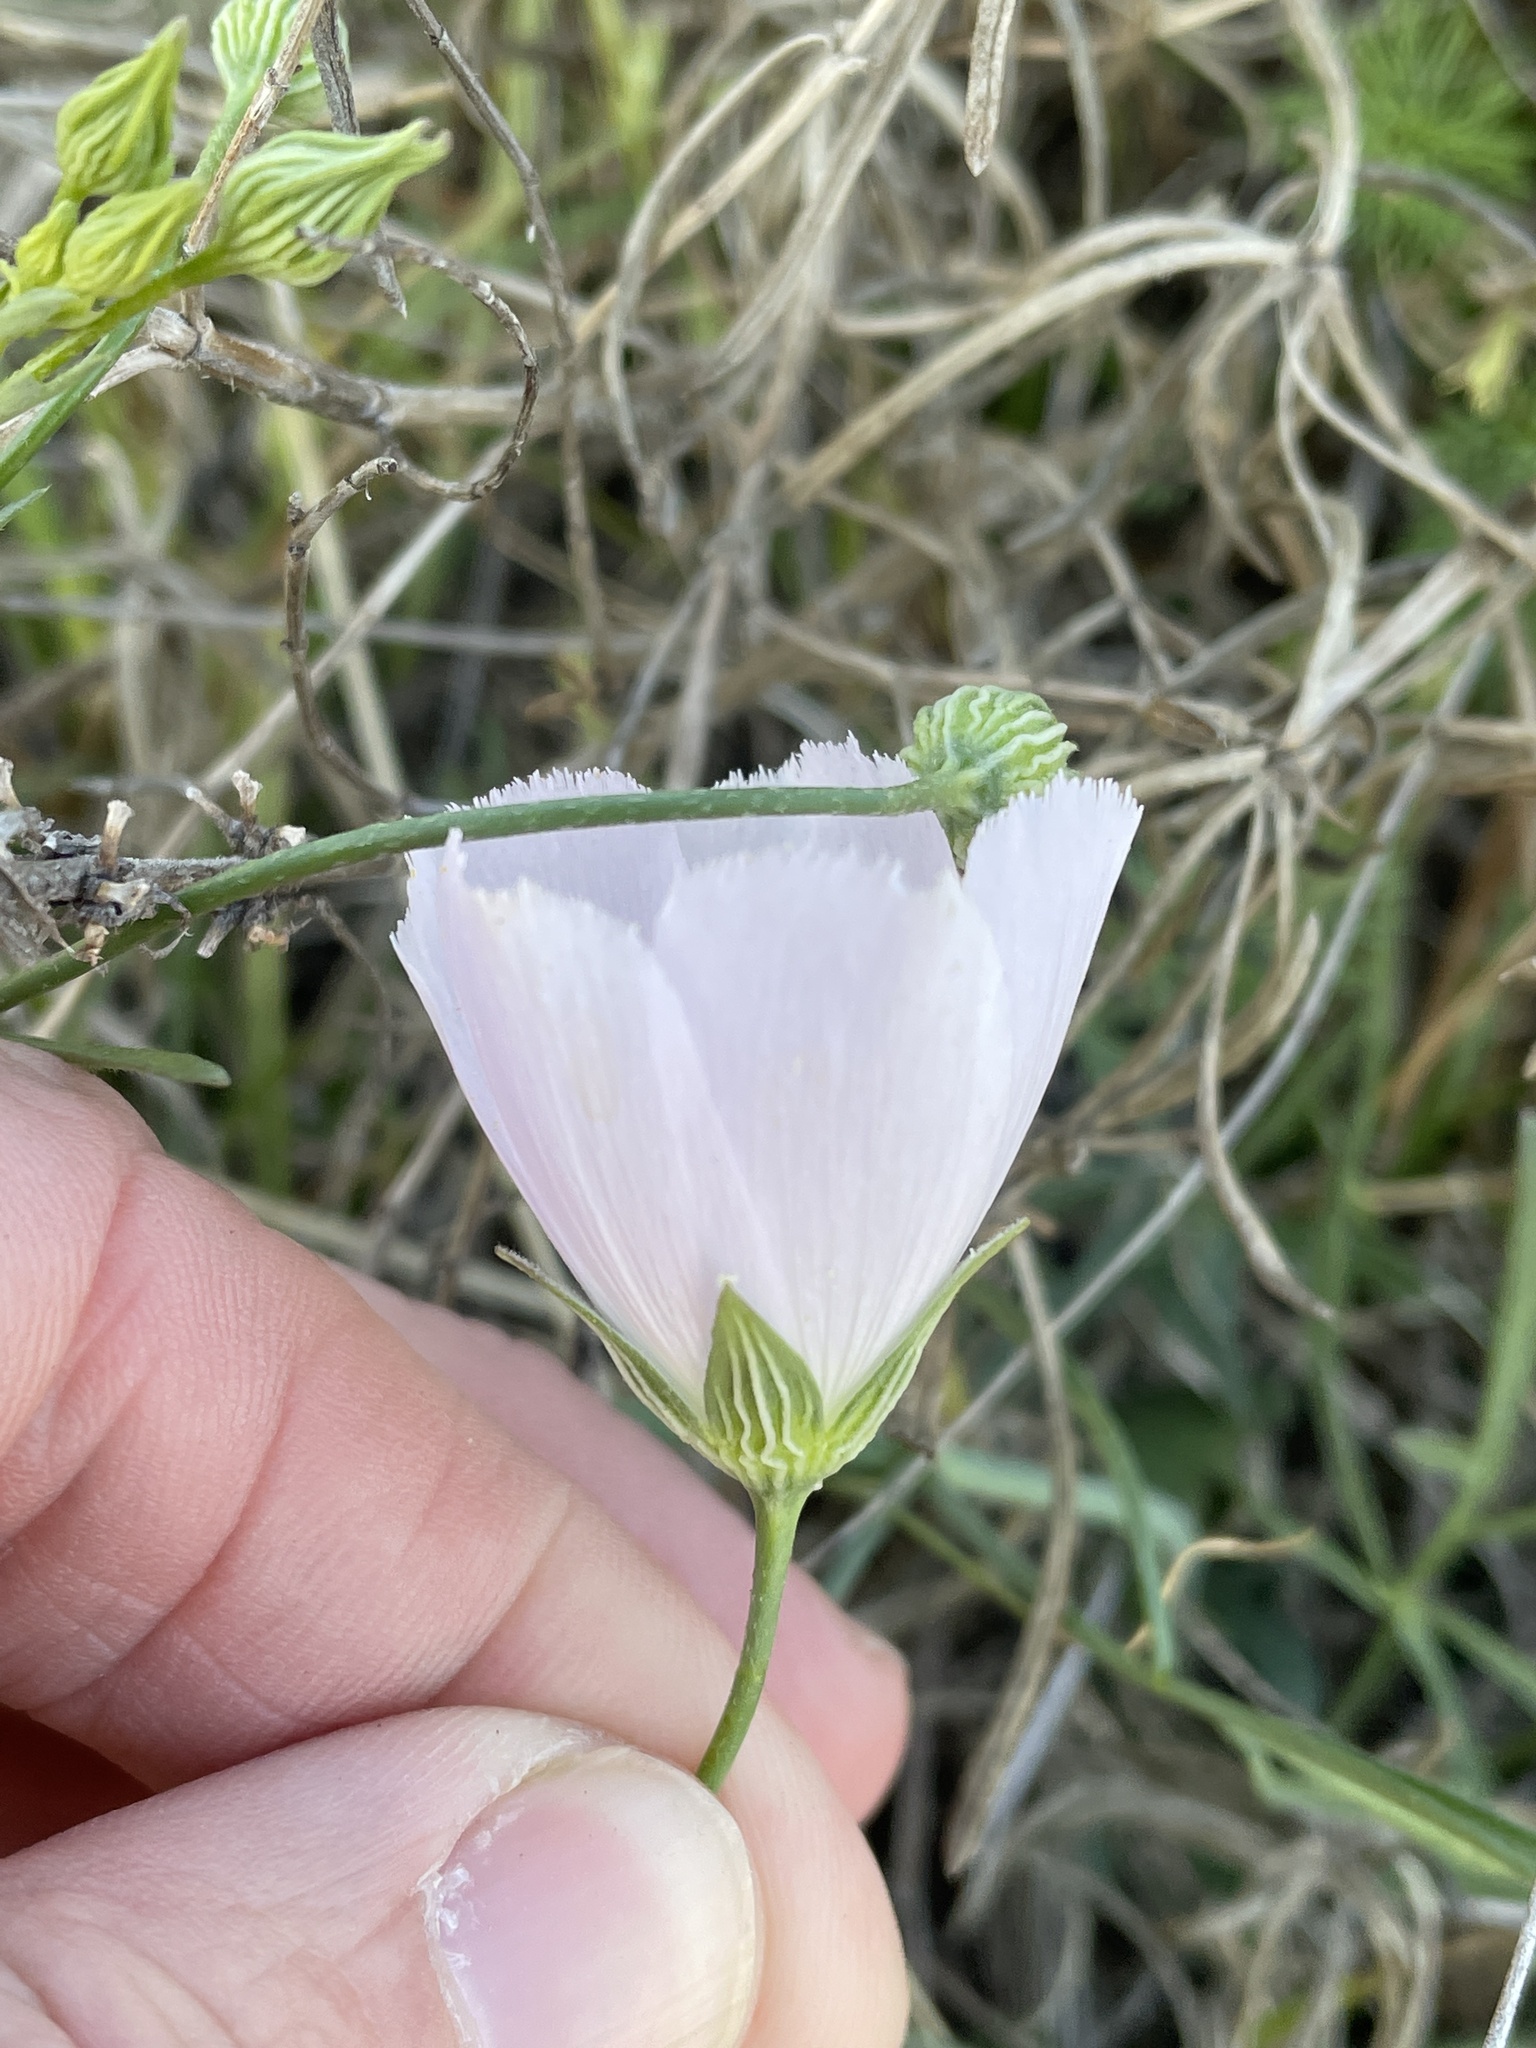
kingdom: Plantae
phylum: Tracheophyta
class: Magnoliopsida
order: Malvales
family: Malvaceae
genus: Callirhoe
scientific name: Callirhoe pedata
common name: Finger poppy-mallow
